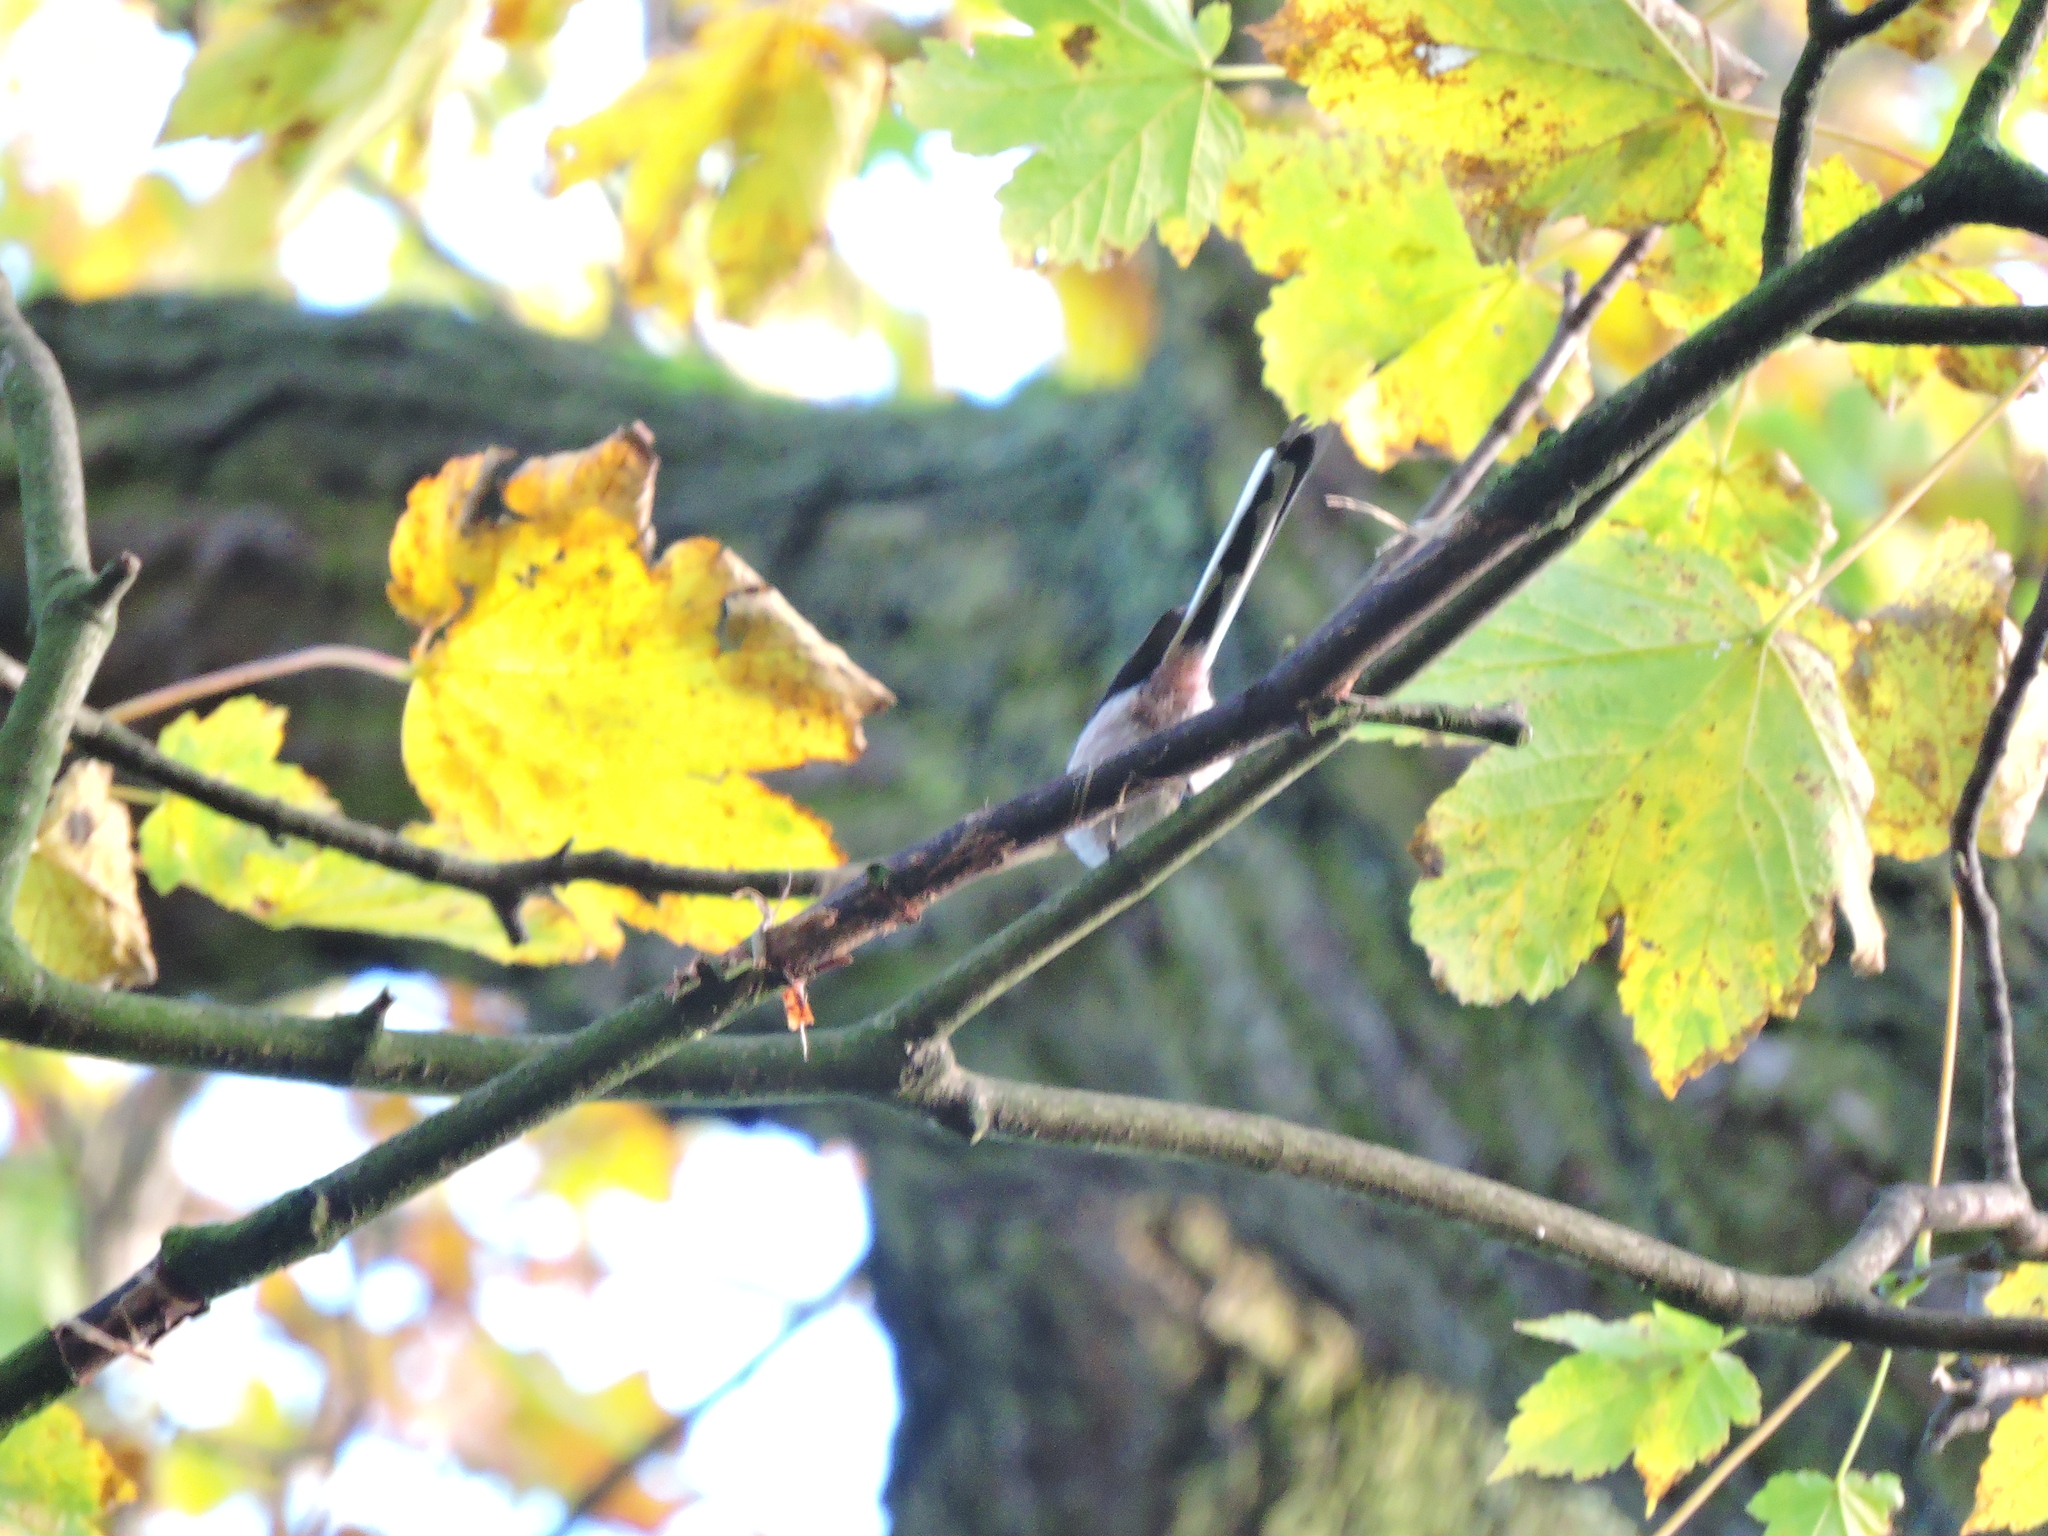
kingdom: Animalia
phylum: Chordata
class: Aves
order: Passeriformes
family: Aegithalidae
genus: Aegithalos
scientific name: Aegithalos caudatus
